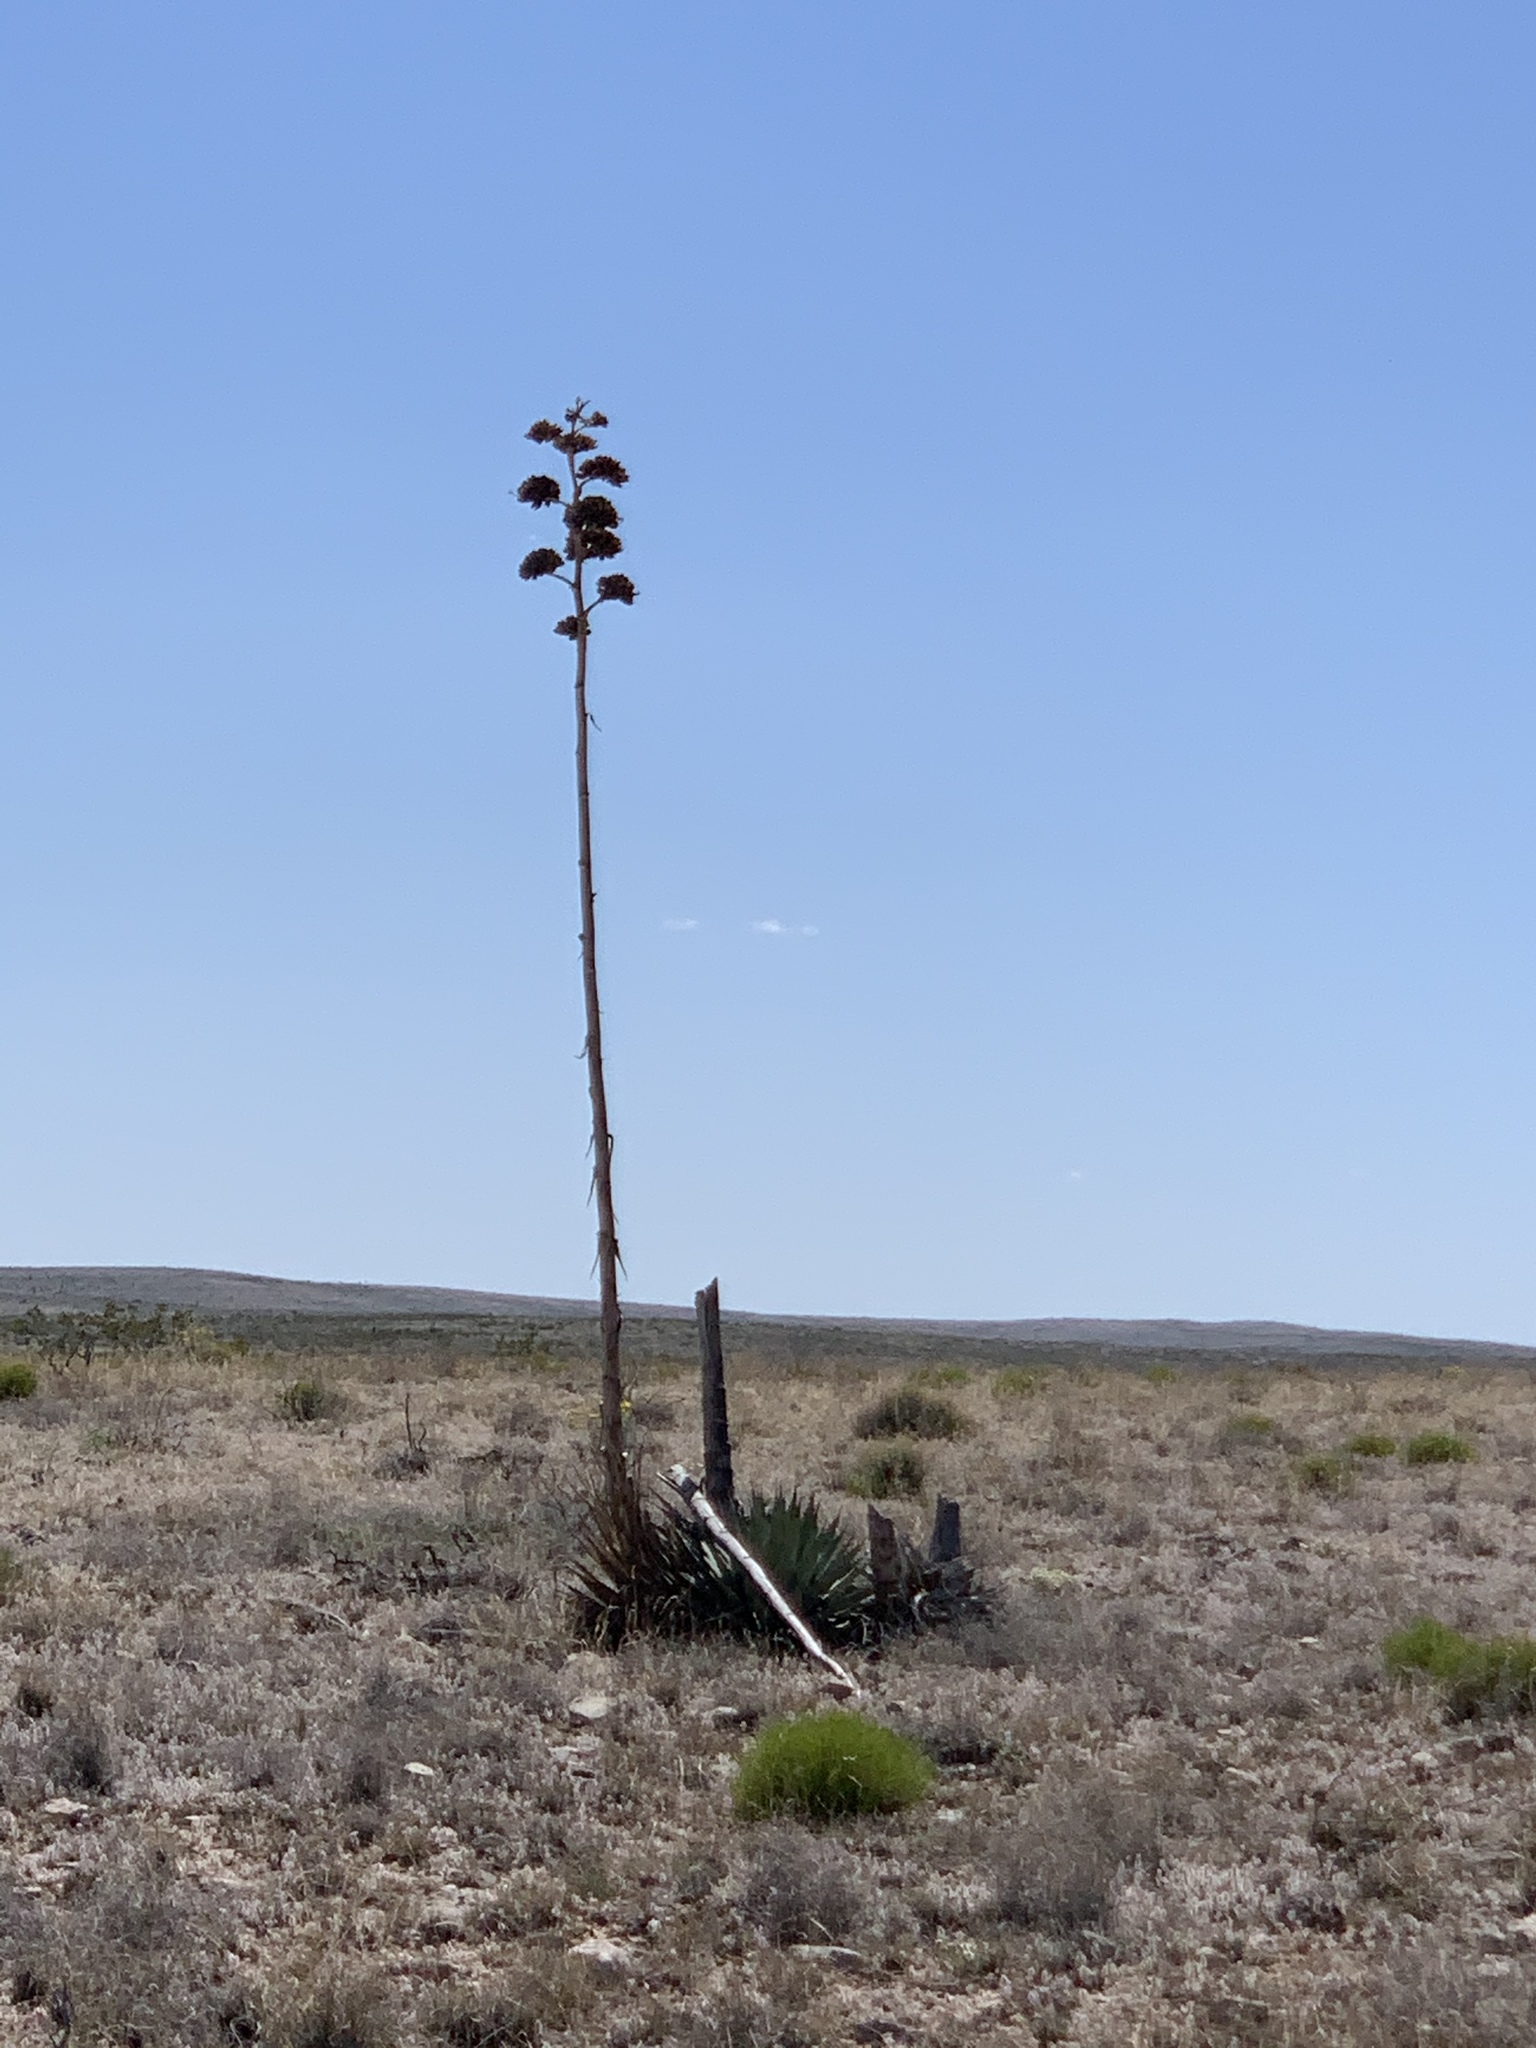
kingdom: Plantae
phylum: Tracheophyta
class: Liliopsida
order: Asparagales
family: Asparagaceae
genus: Agave
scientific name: Agave parryi
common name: Parry's agave
